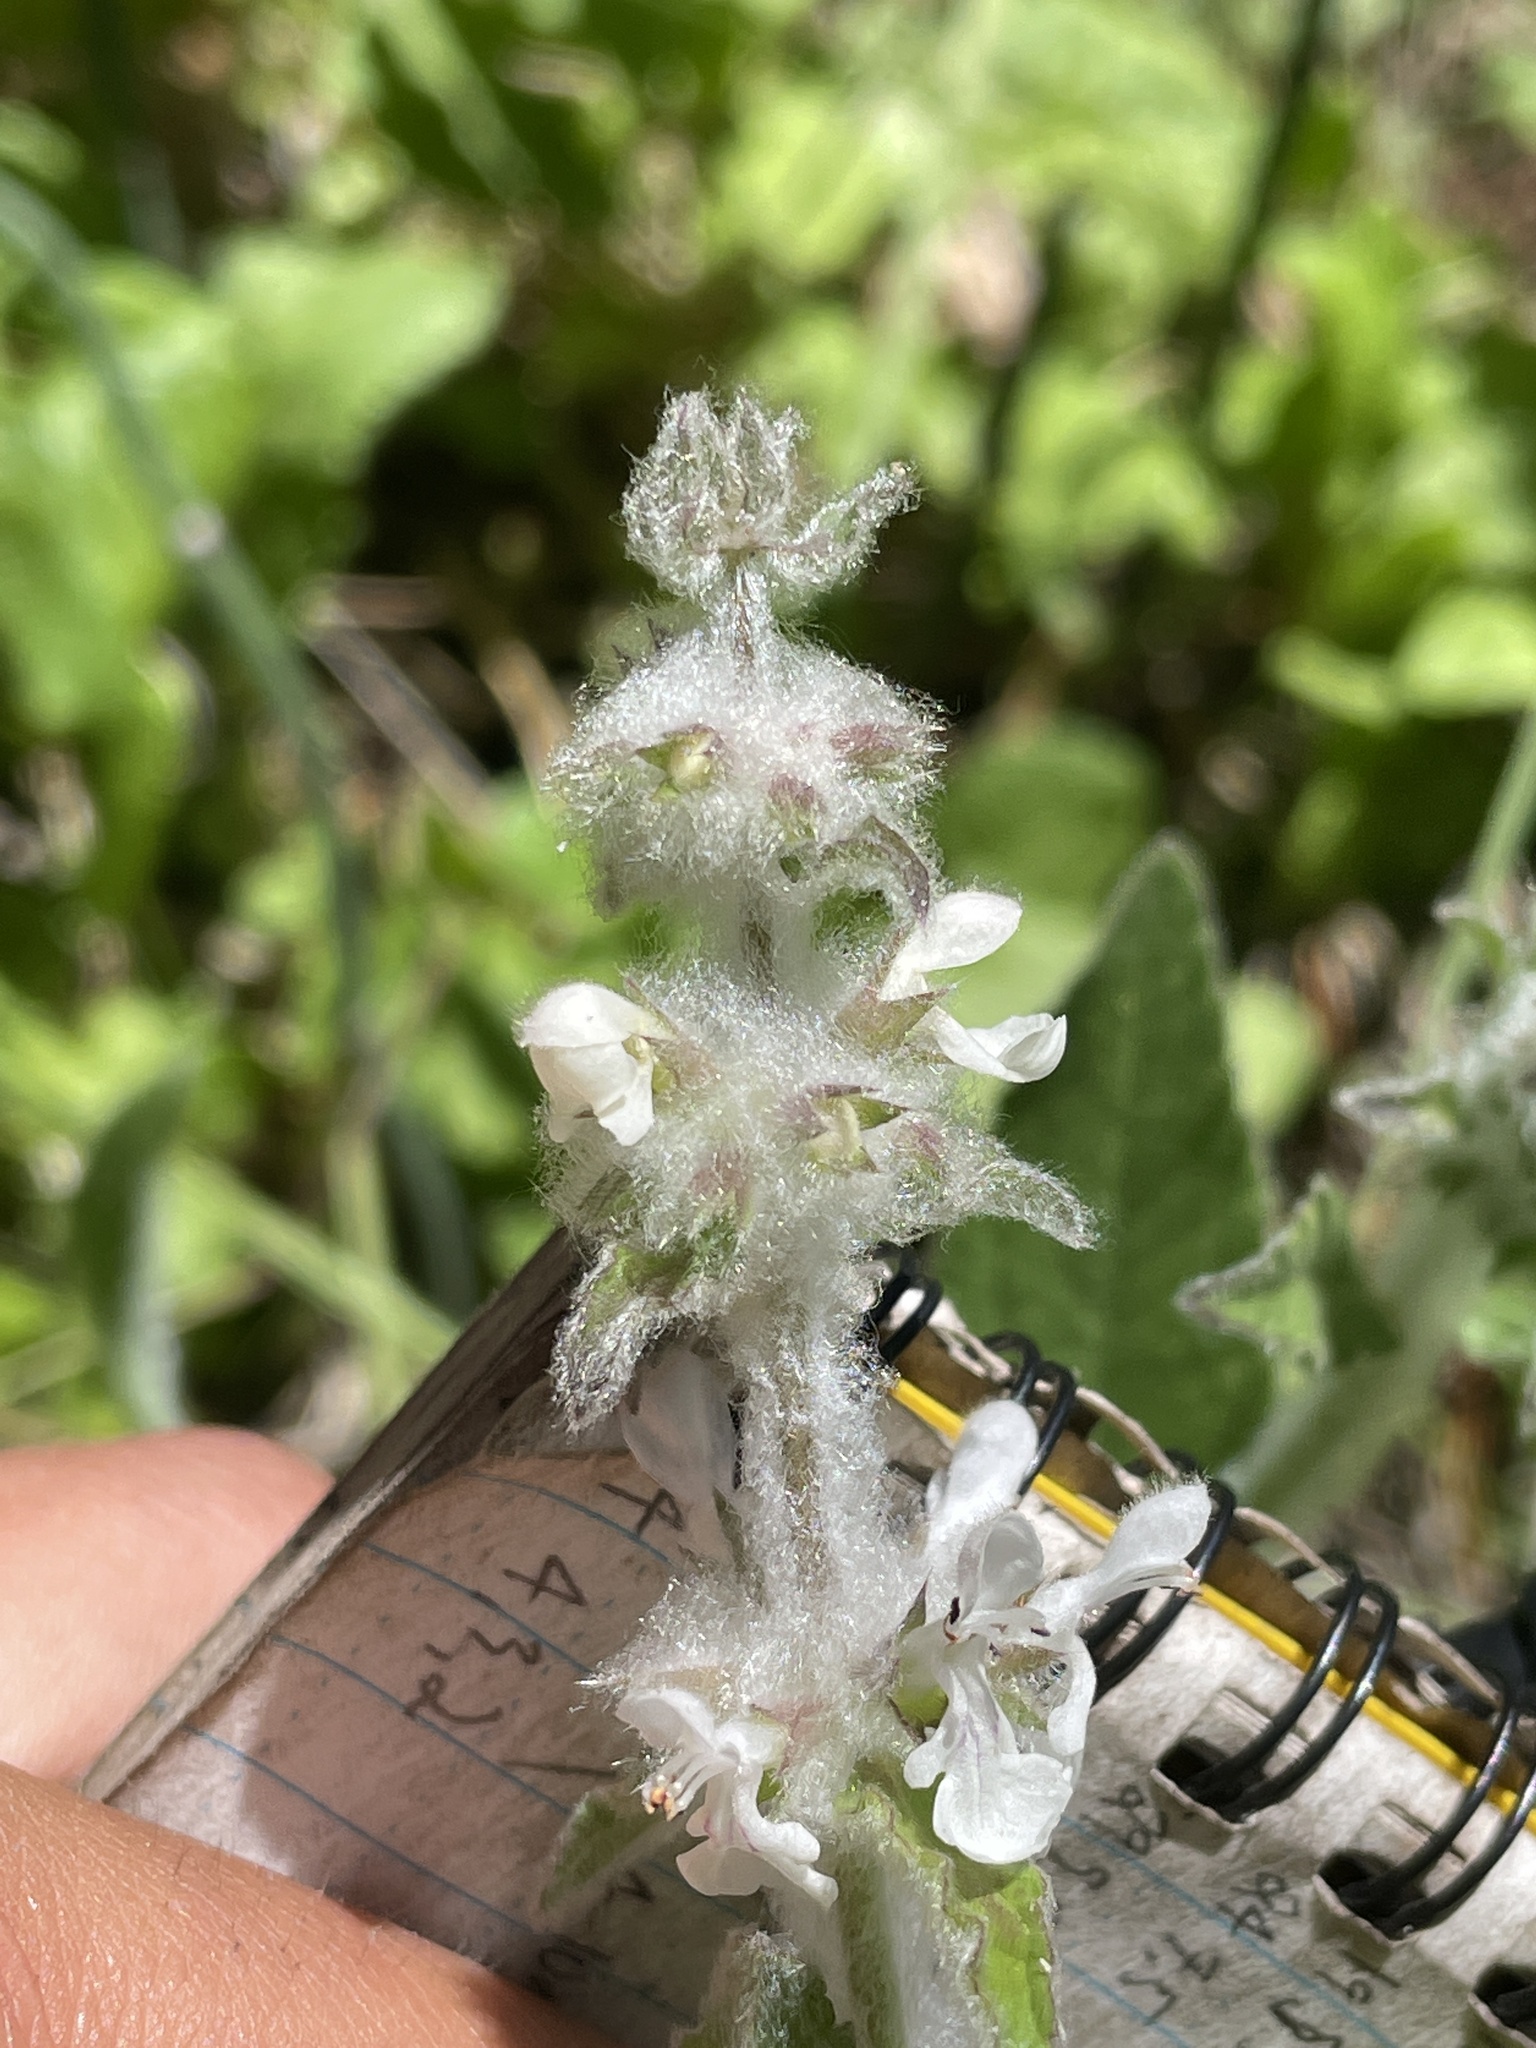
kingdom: Plantae
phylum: Tracheophyta
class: Magnoliopsida
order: Lamiales
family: Lamiaceae
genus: Stachys
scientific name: Stachys albens
